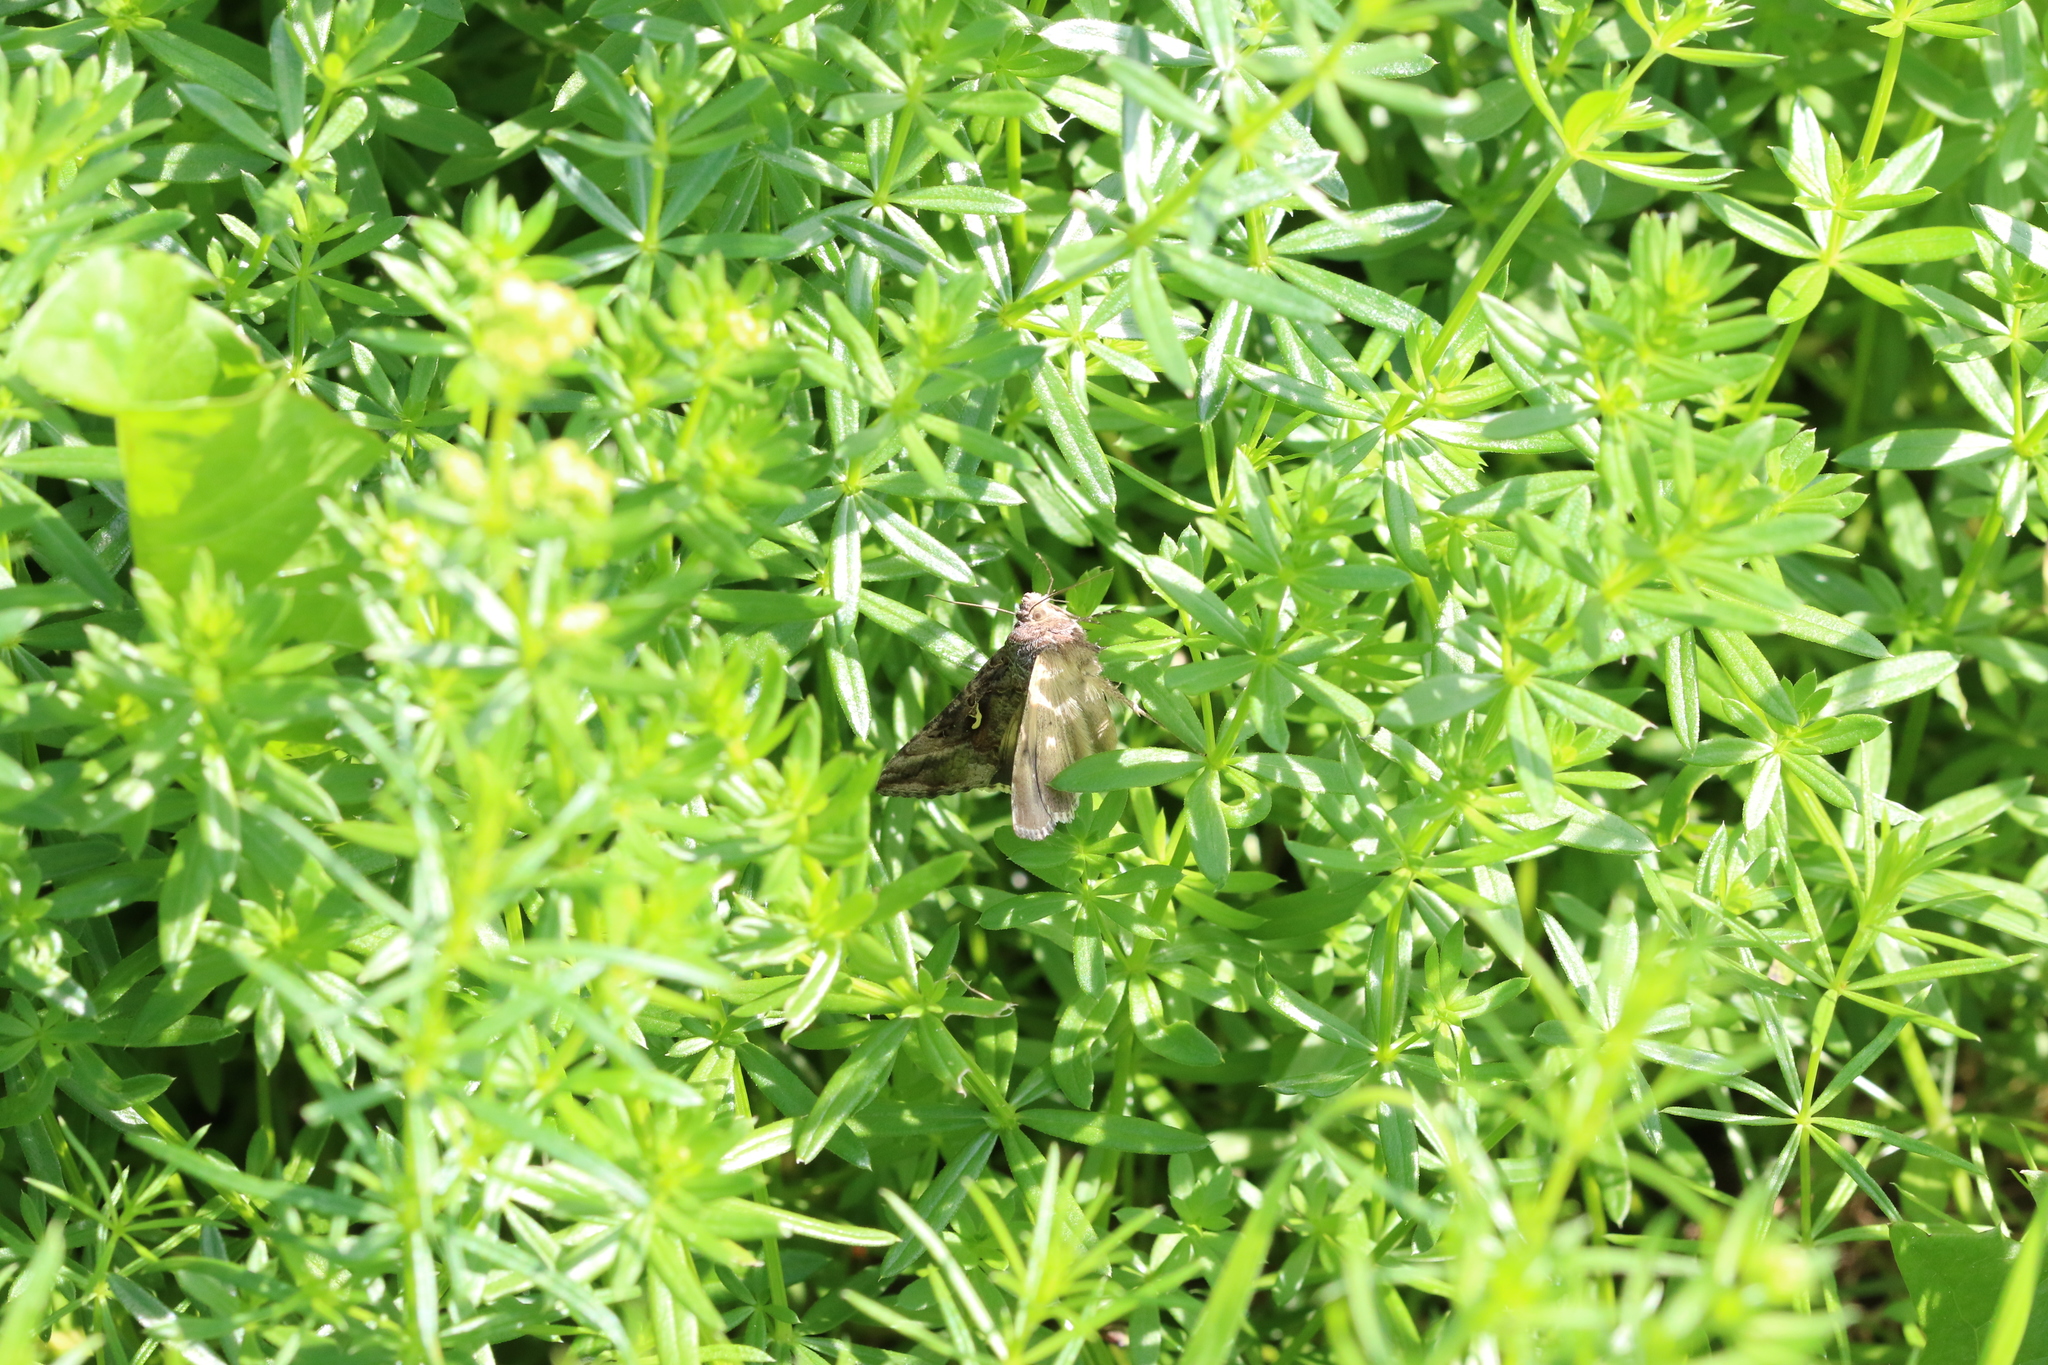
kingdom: Animalia
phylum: Arthropoda
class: Insecta
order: Lepidoptera
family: Noctuidae
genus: Autographa
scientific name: Autographa gamma
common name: Silver y
